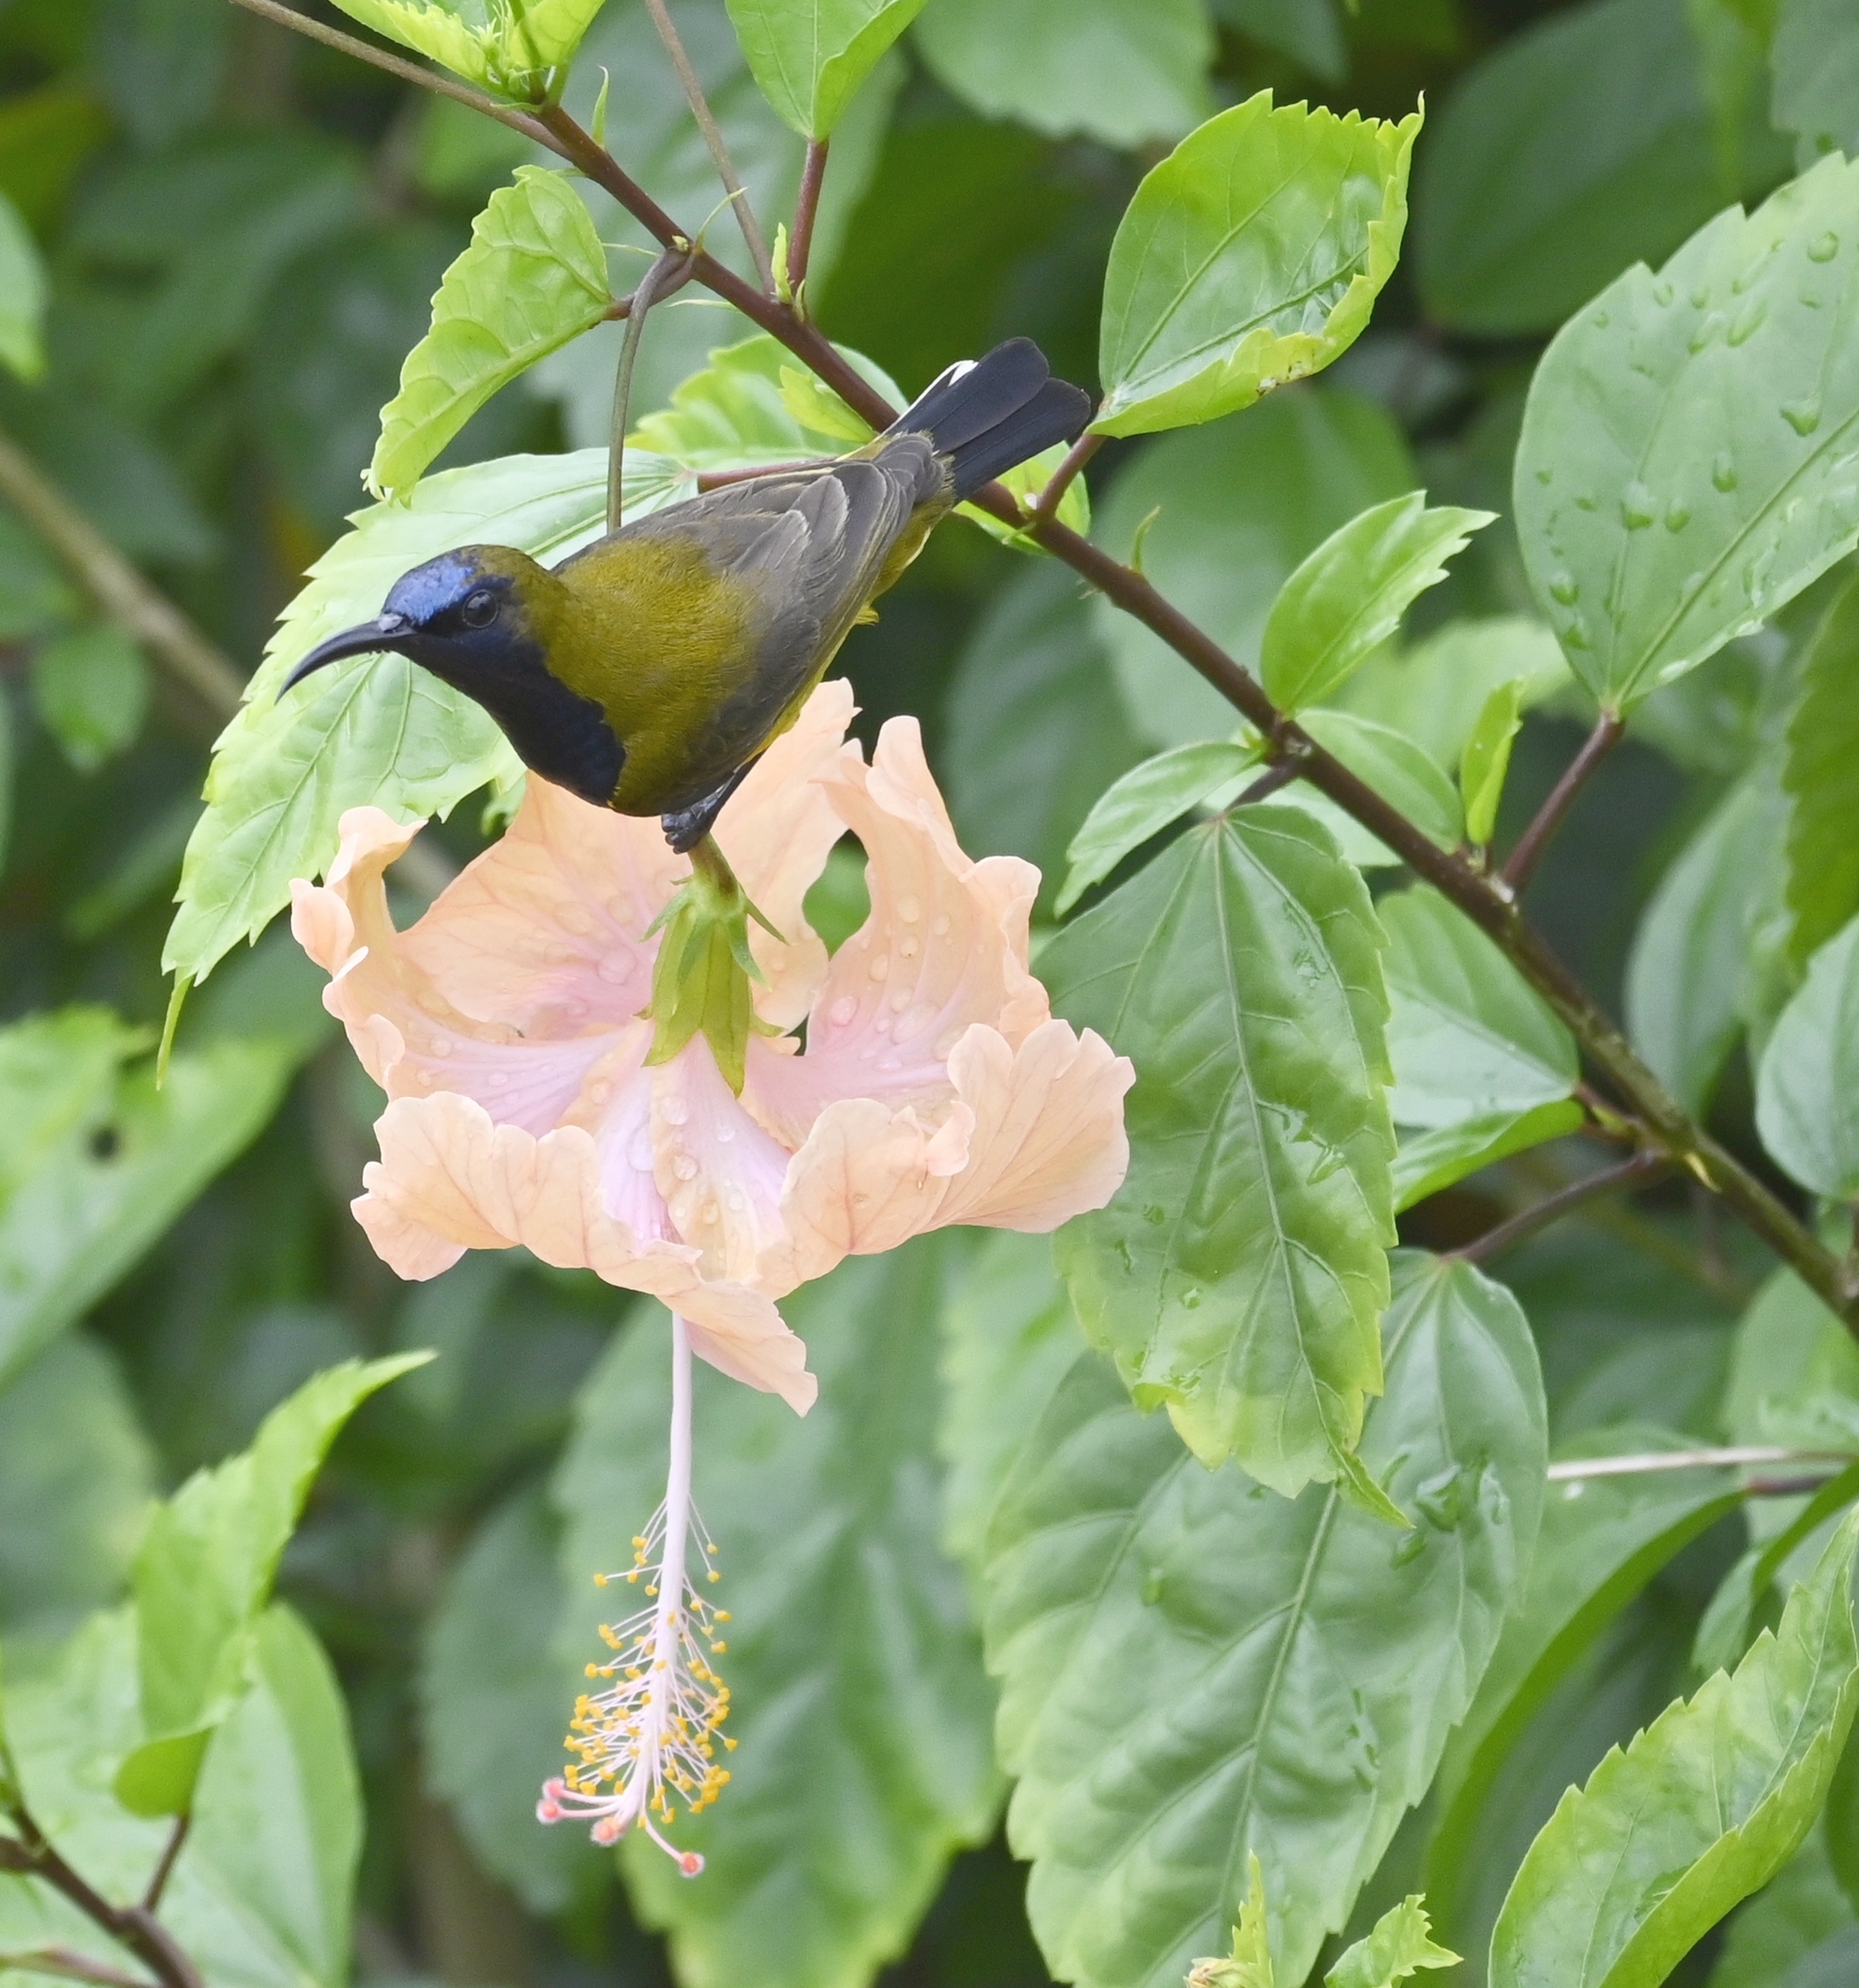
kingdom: Animalia
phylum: Chordata
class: Aves
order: Passeriformes
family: Nectariniidae
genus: Cinnyris
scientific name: Cinnyris
